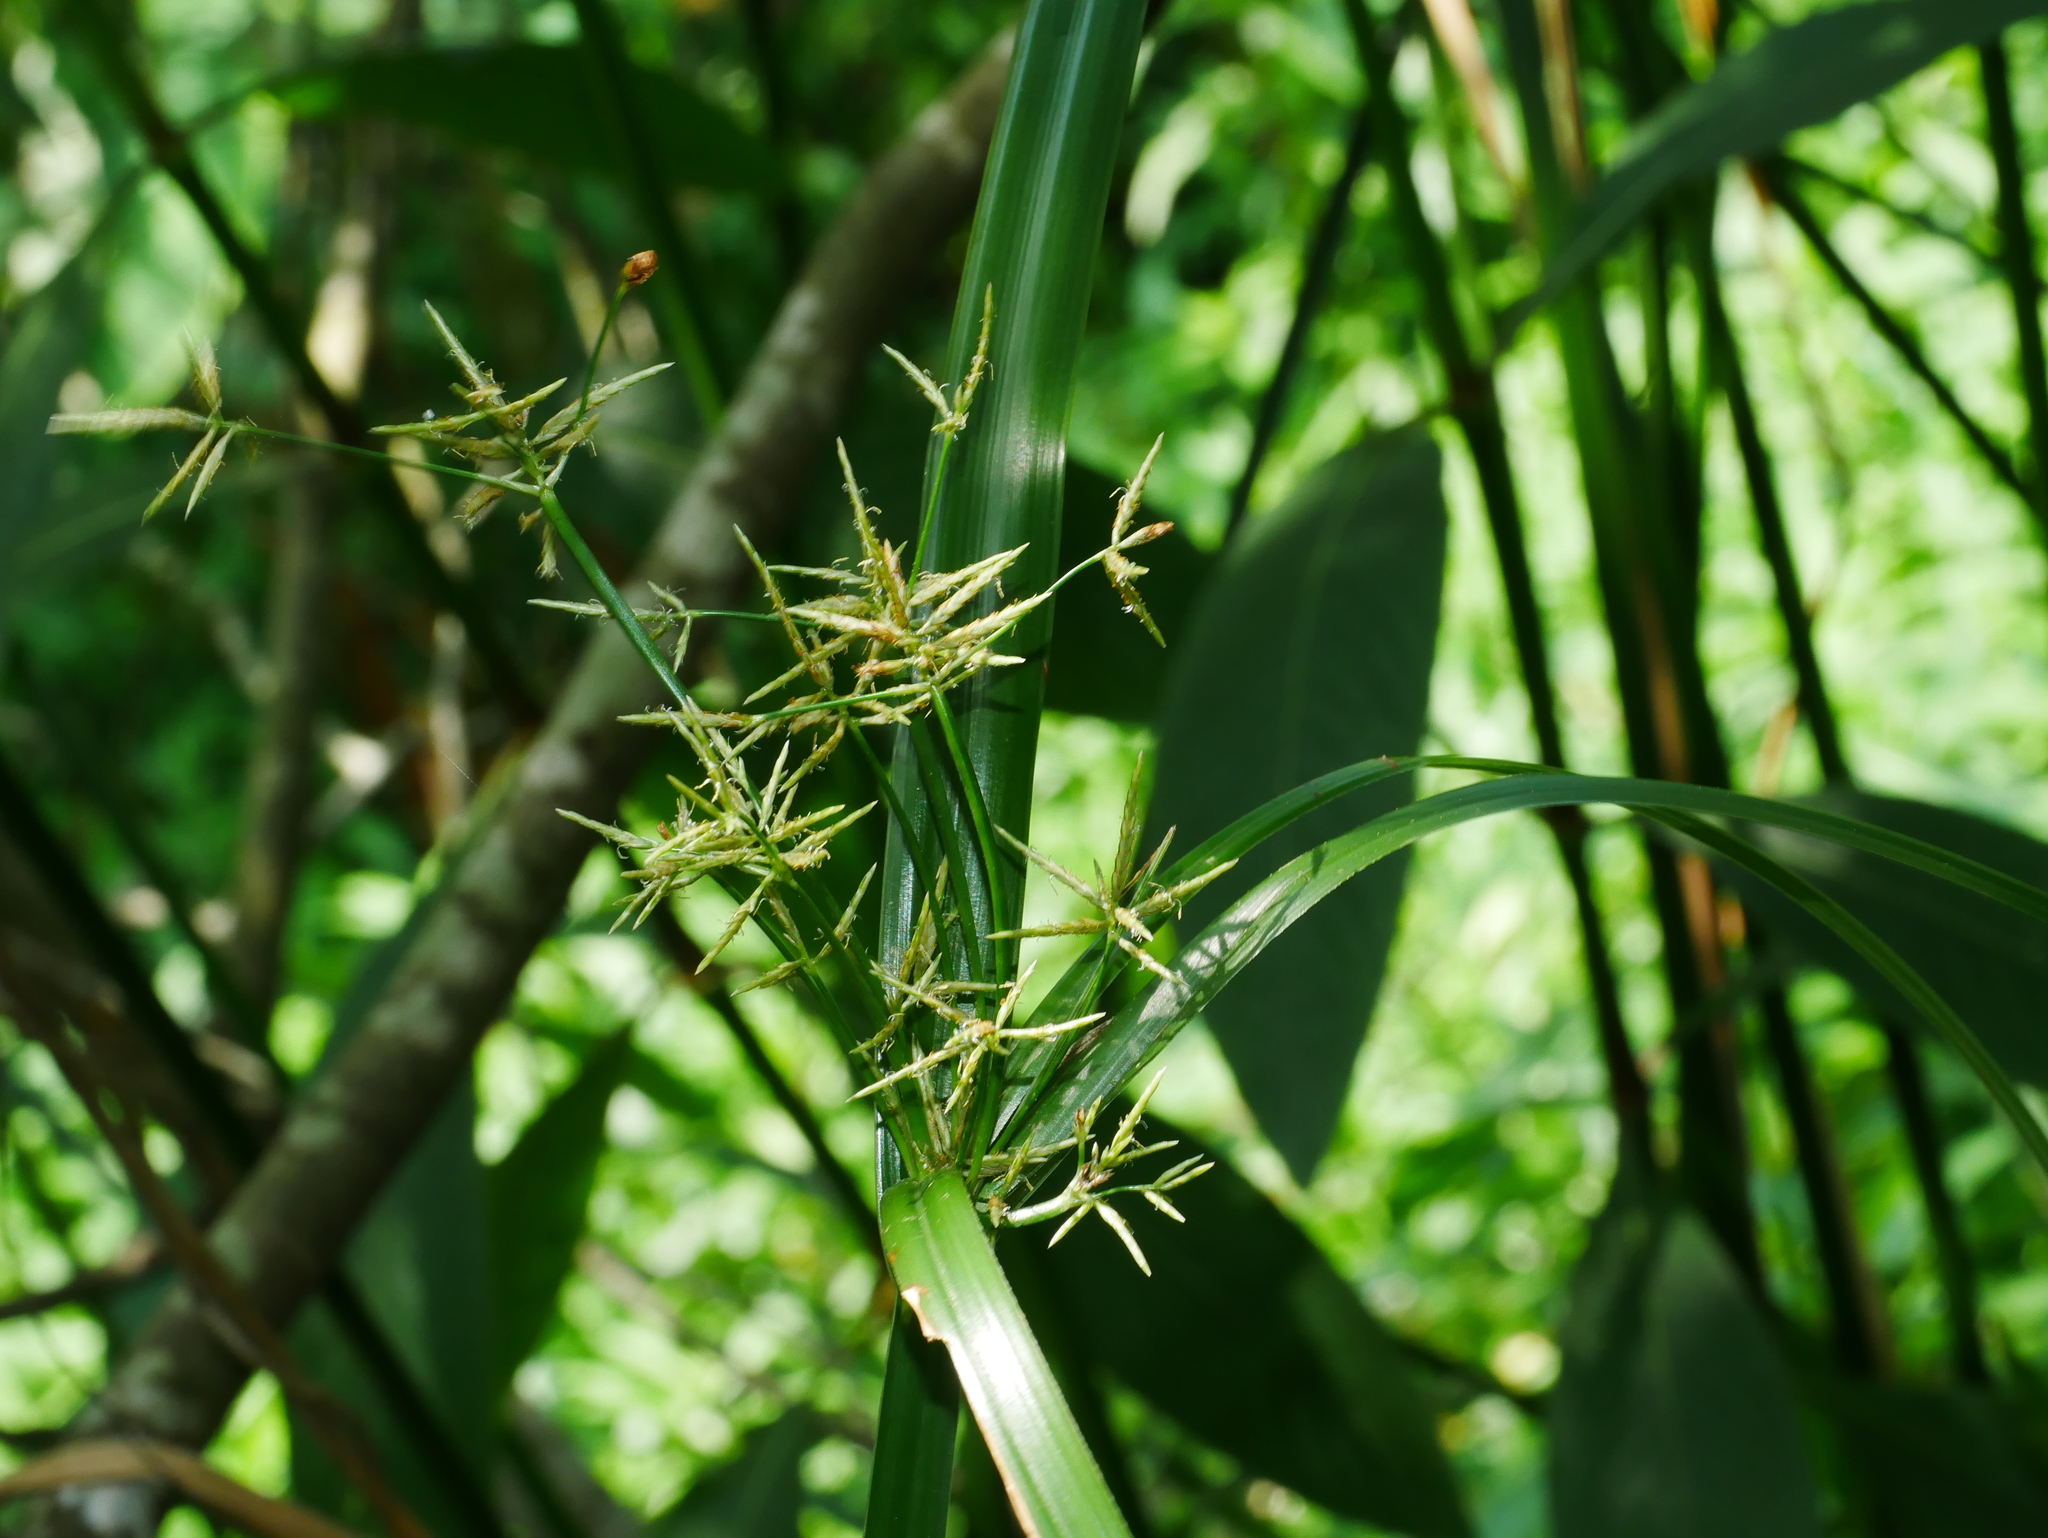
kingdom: Plantae
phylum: Tracheophyta
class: Liliopsida
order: Poales
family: Cyperaceae
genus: Cyperus
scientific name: Cyperus malaccensis
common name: Shichito matgrass
